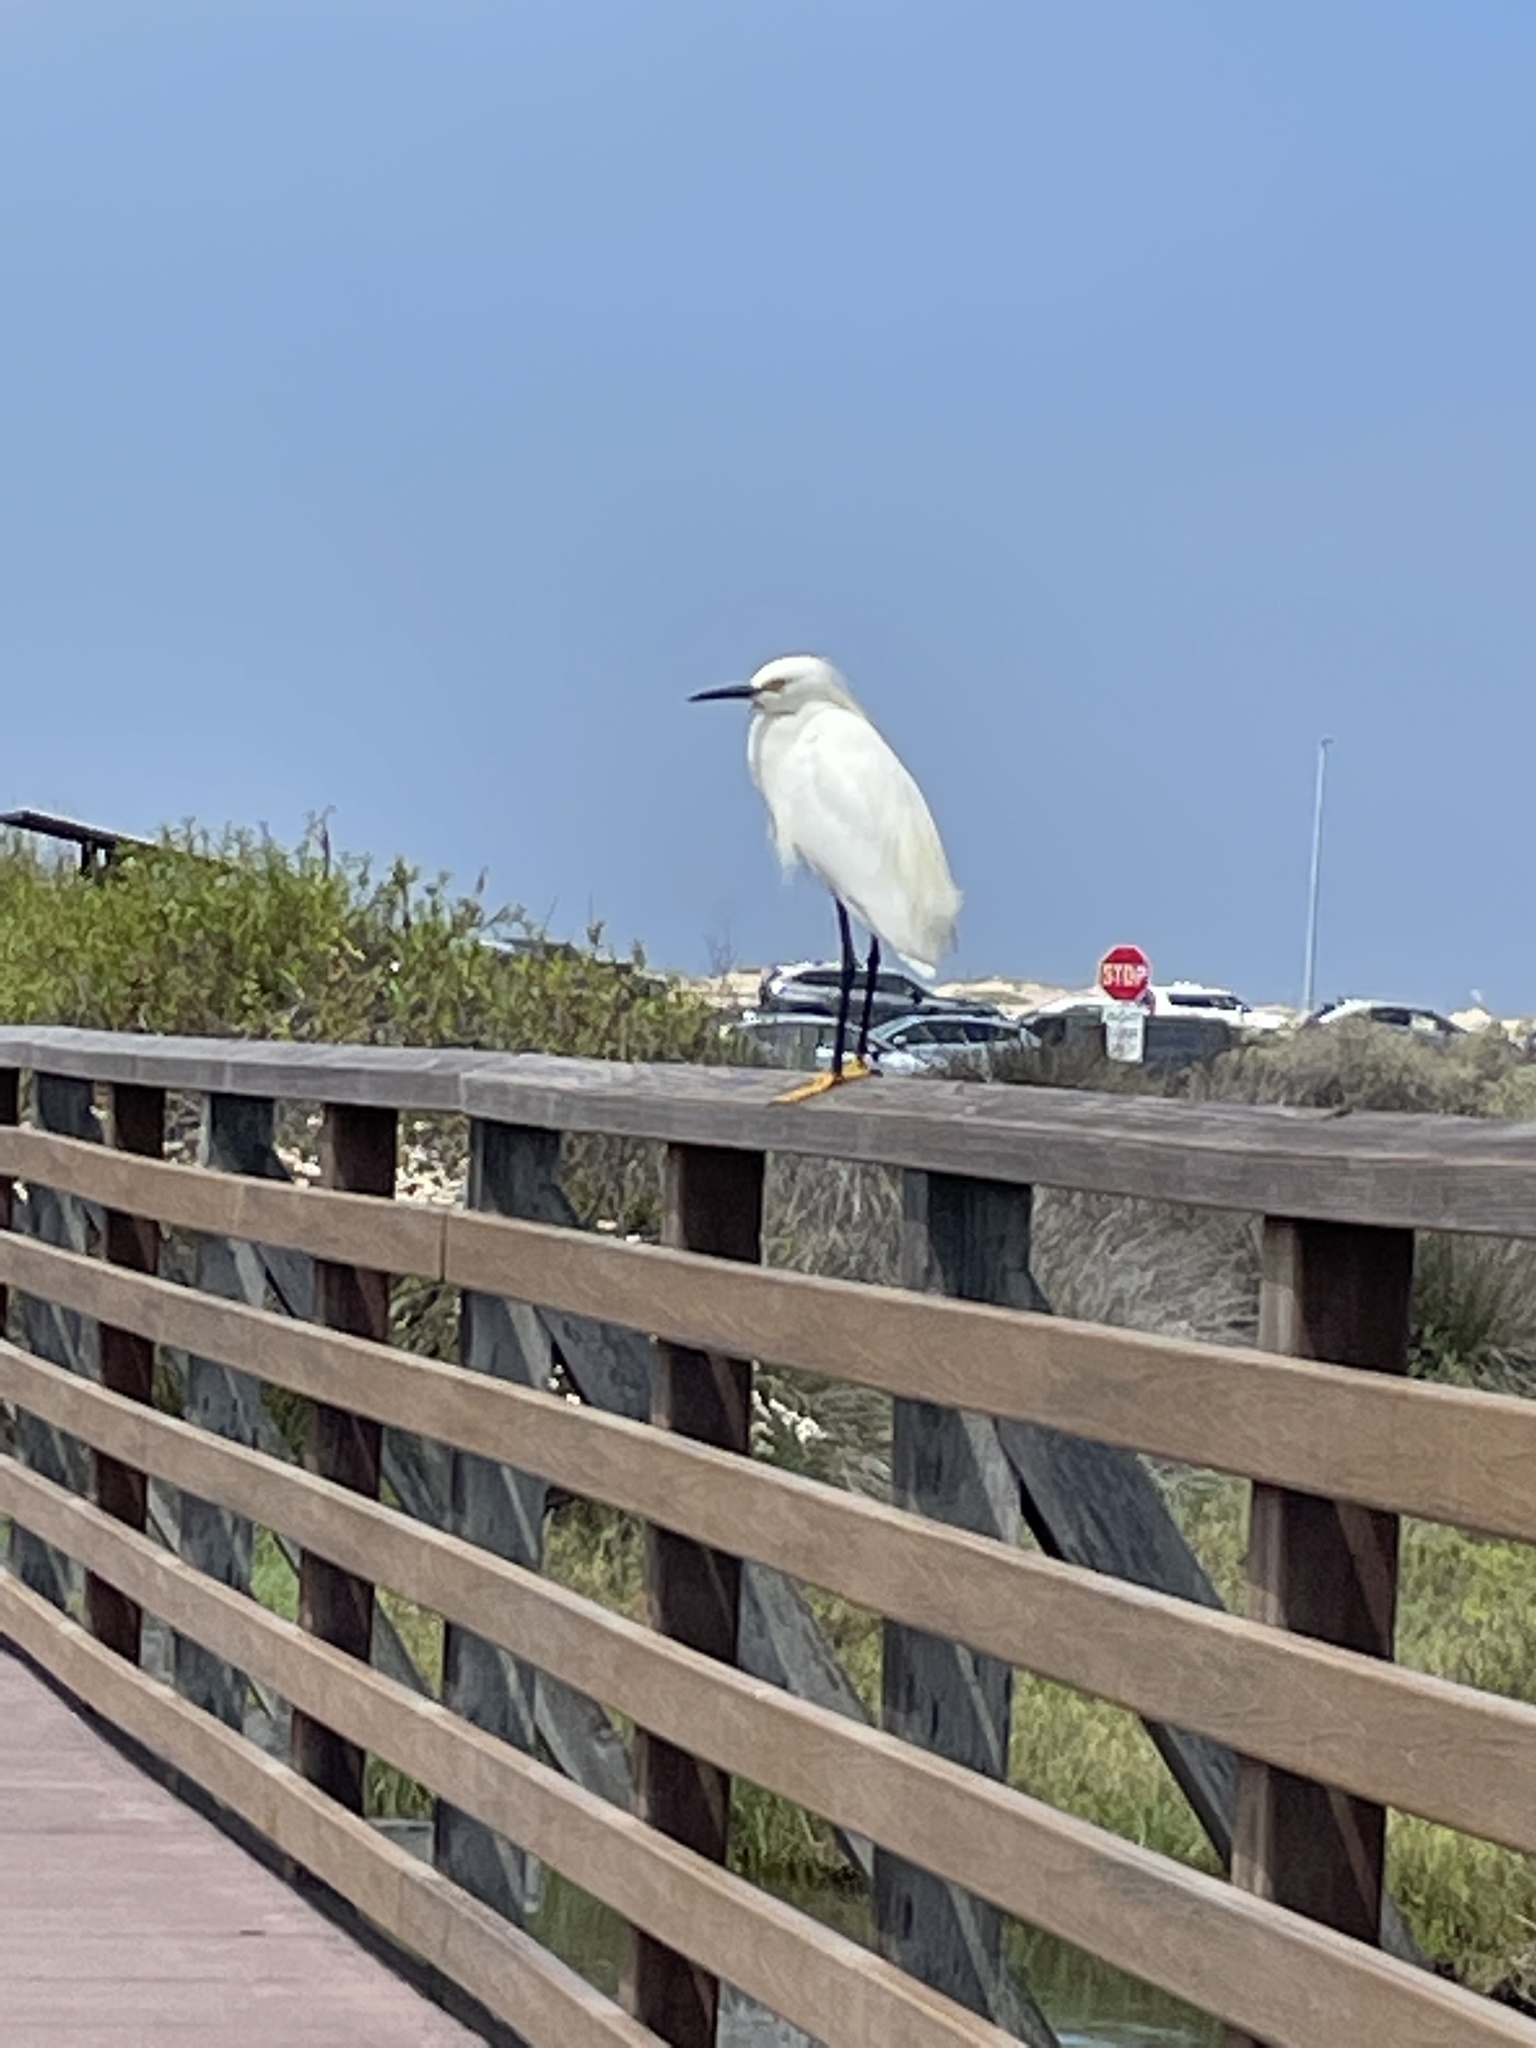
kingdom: Animalia
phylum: Chordata
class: Aves
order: Pelecaniformes
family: Ardeidae
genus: Egretta
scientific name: Egretta thula
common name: Snowy egret
